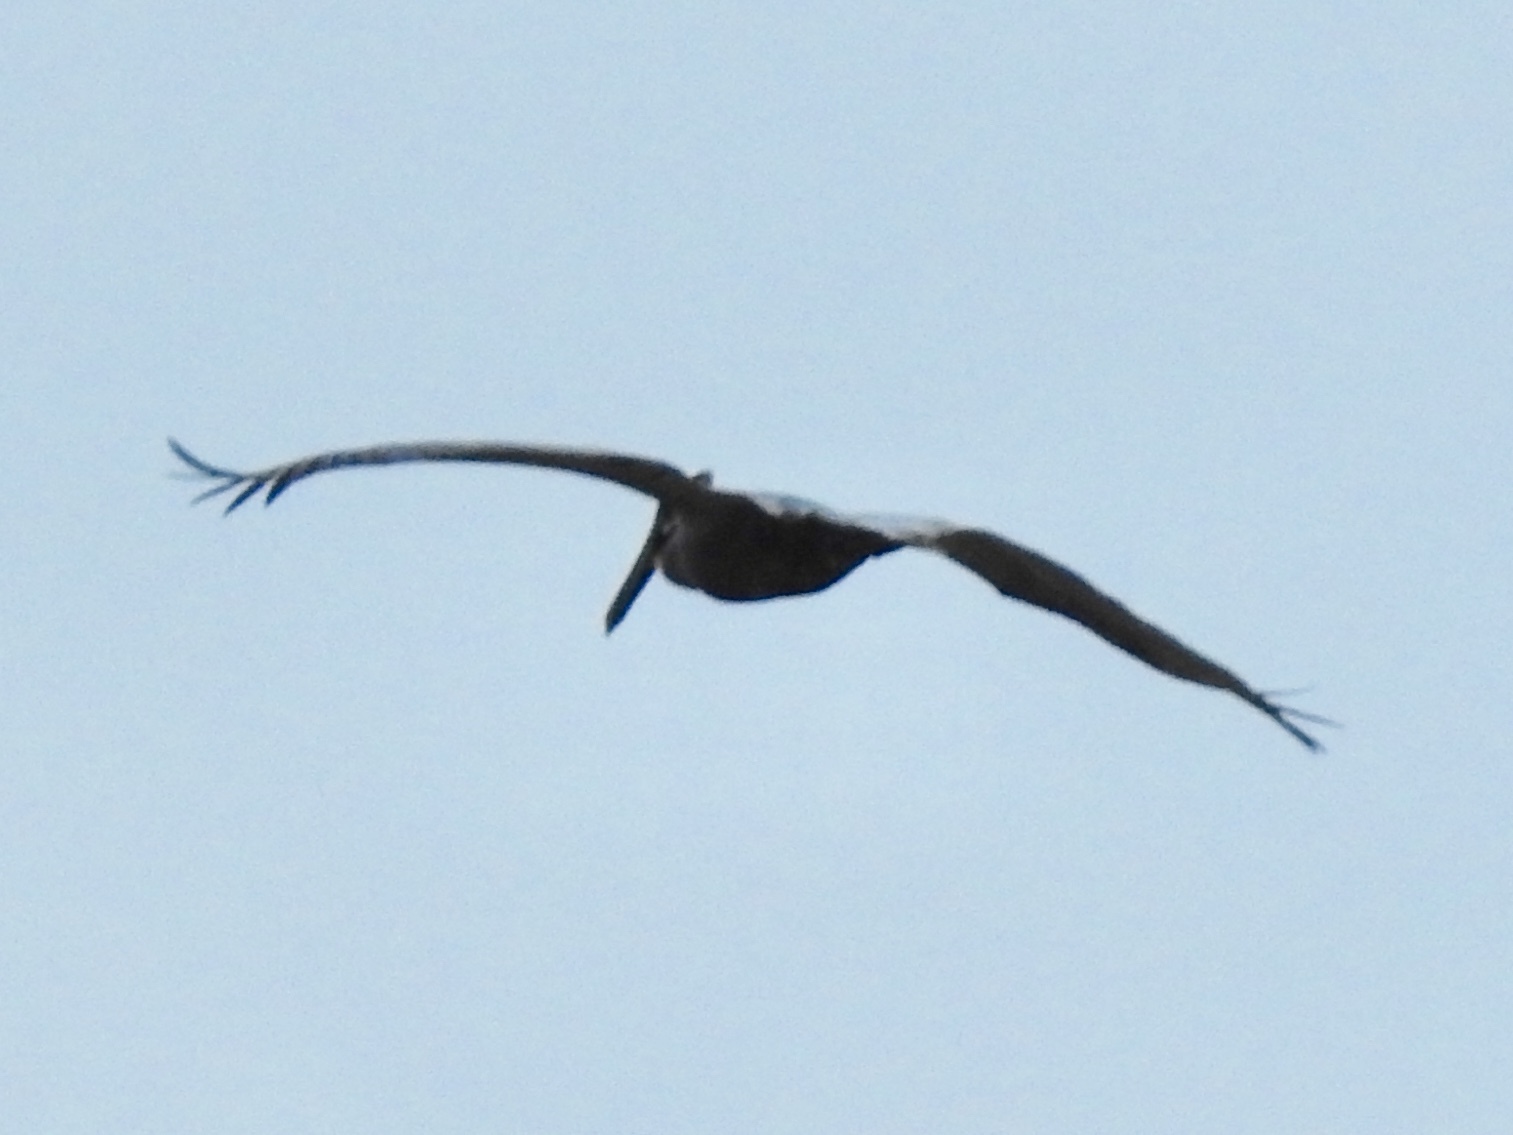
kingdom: Animalia
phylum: Chordata
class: Aves
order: Pelecaniformes
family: Pelecanidae
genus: Pelecanus
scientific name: Pelecanus occidentalis
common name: Brown pelican
